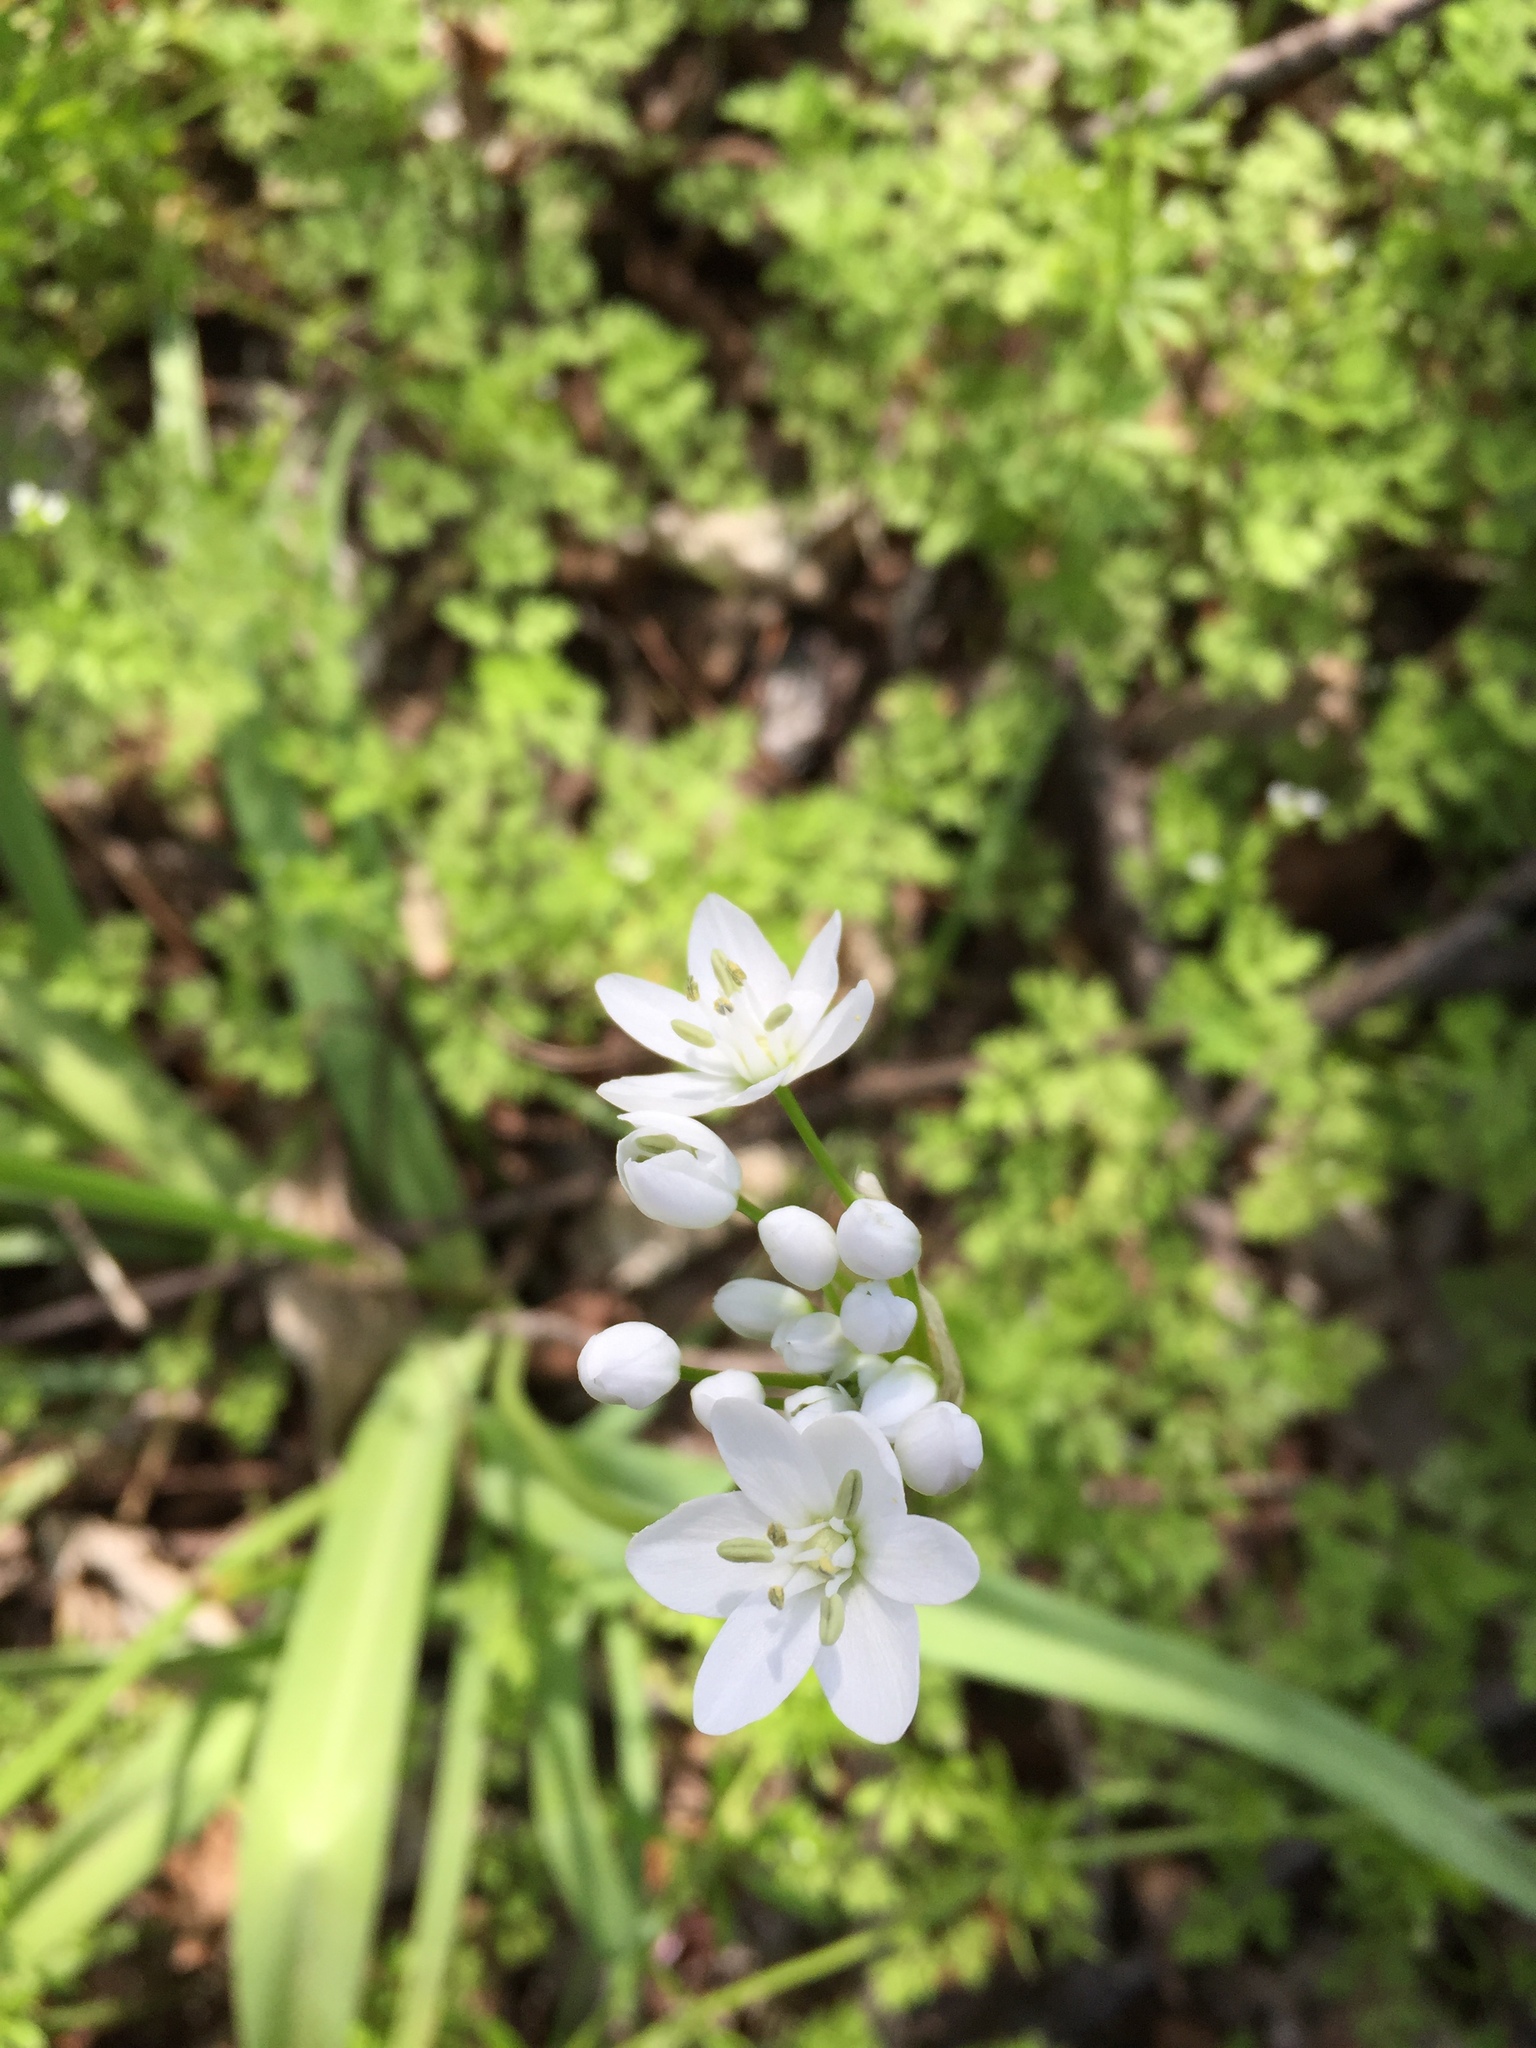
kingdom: Plantae
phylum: Tracheophyta
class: Liliopsida
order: Asparagales
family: Amaryllidaceae
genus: Allium
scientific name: Allium neapolitanum
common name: Neapolitan garlic
